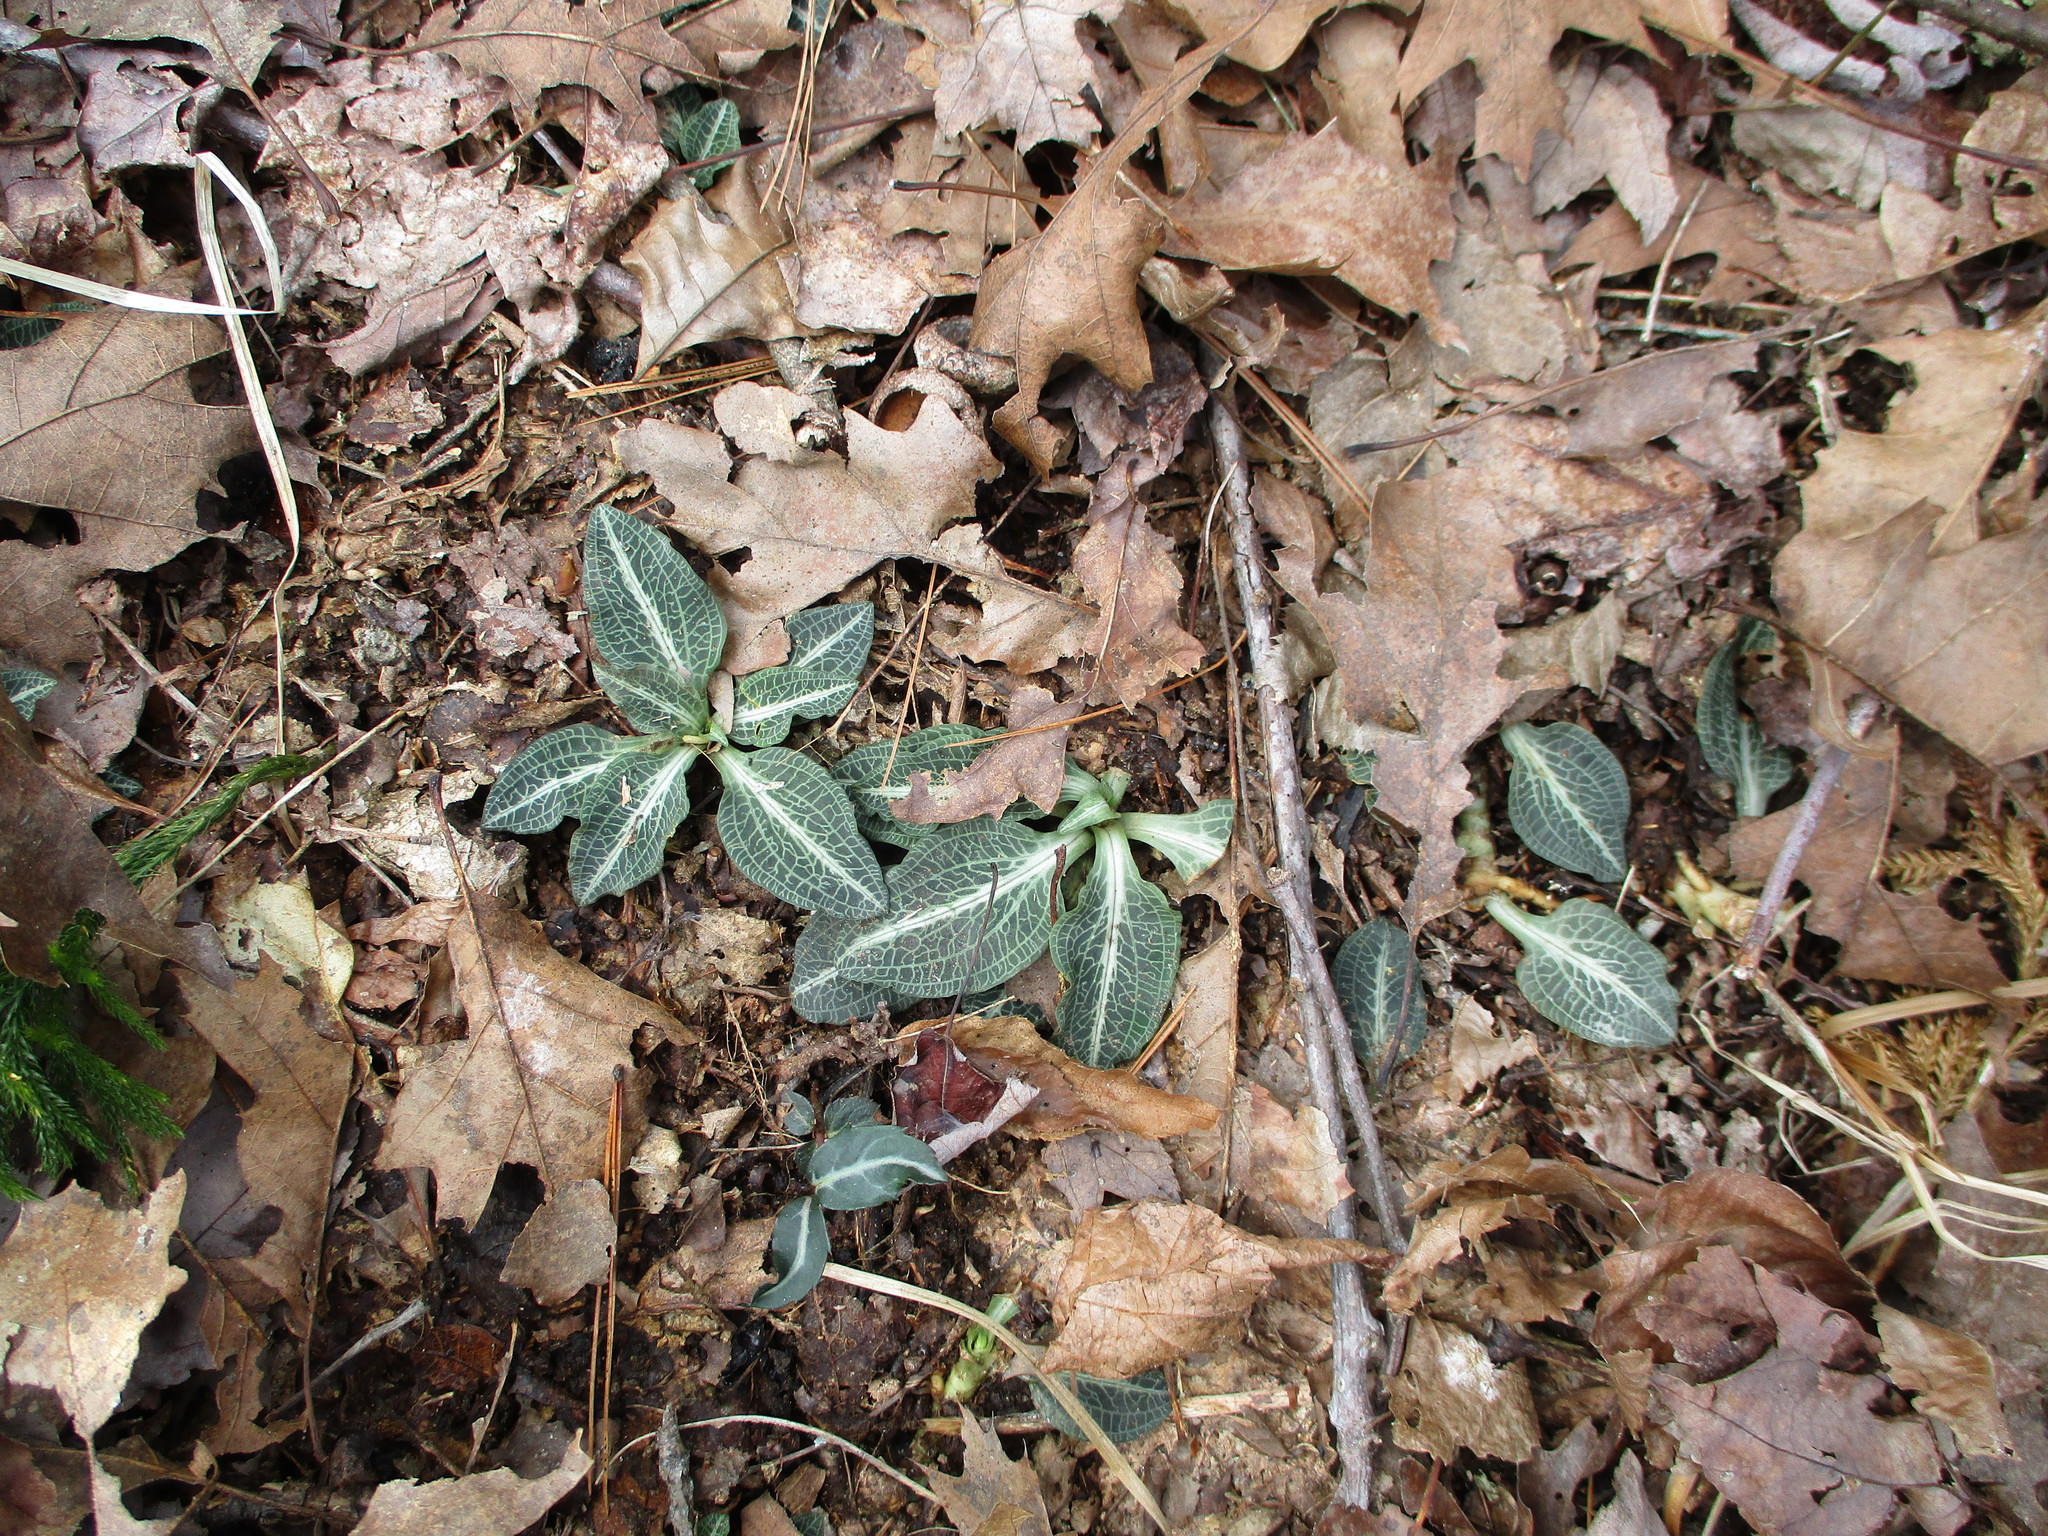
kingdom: Plantae
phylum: Tracheophyta
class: Liliopsida
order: Asparagales
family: Orchidaceae
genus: Goodyera
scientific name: Goodyera pubescens
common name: Downy rattlesnake-plantain
